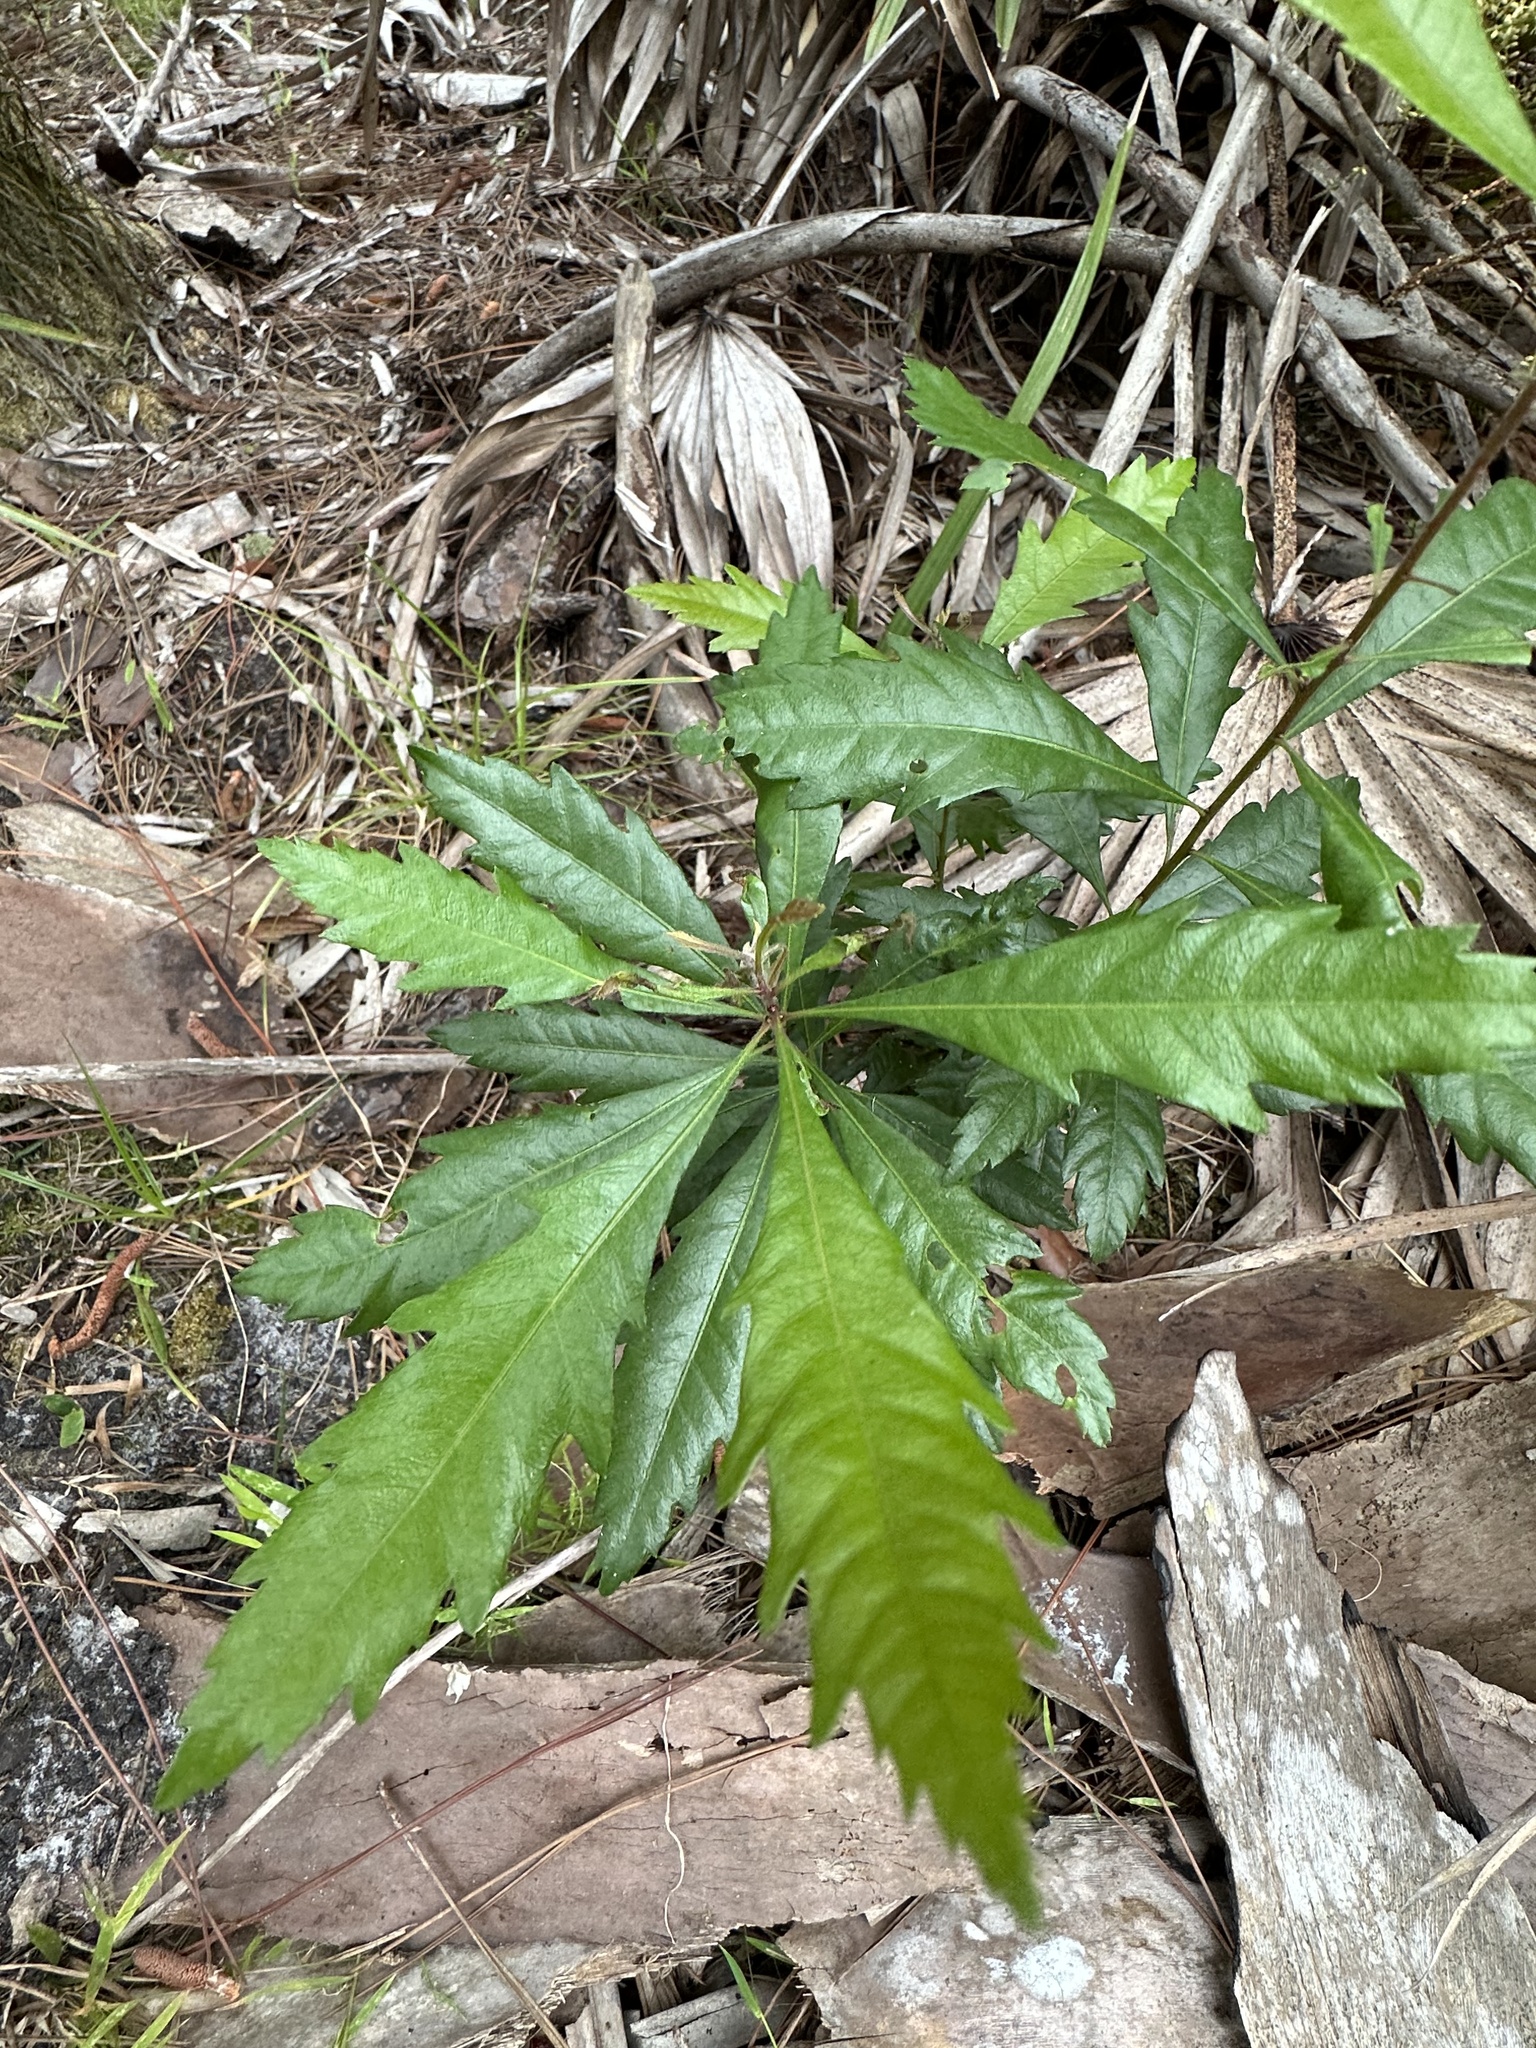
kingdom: Plantae
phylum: Tracheophyta
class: Magnoliopsida
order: Fagales
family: Myricaceae
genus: Morella
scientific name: Morella cerifera
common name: Wax myrtle
